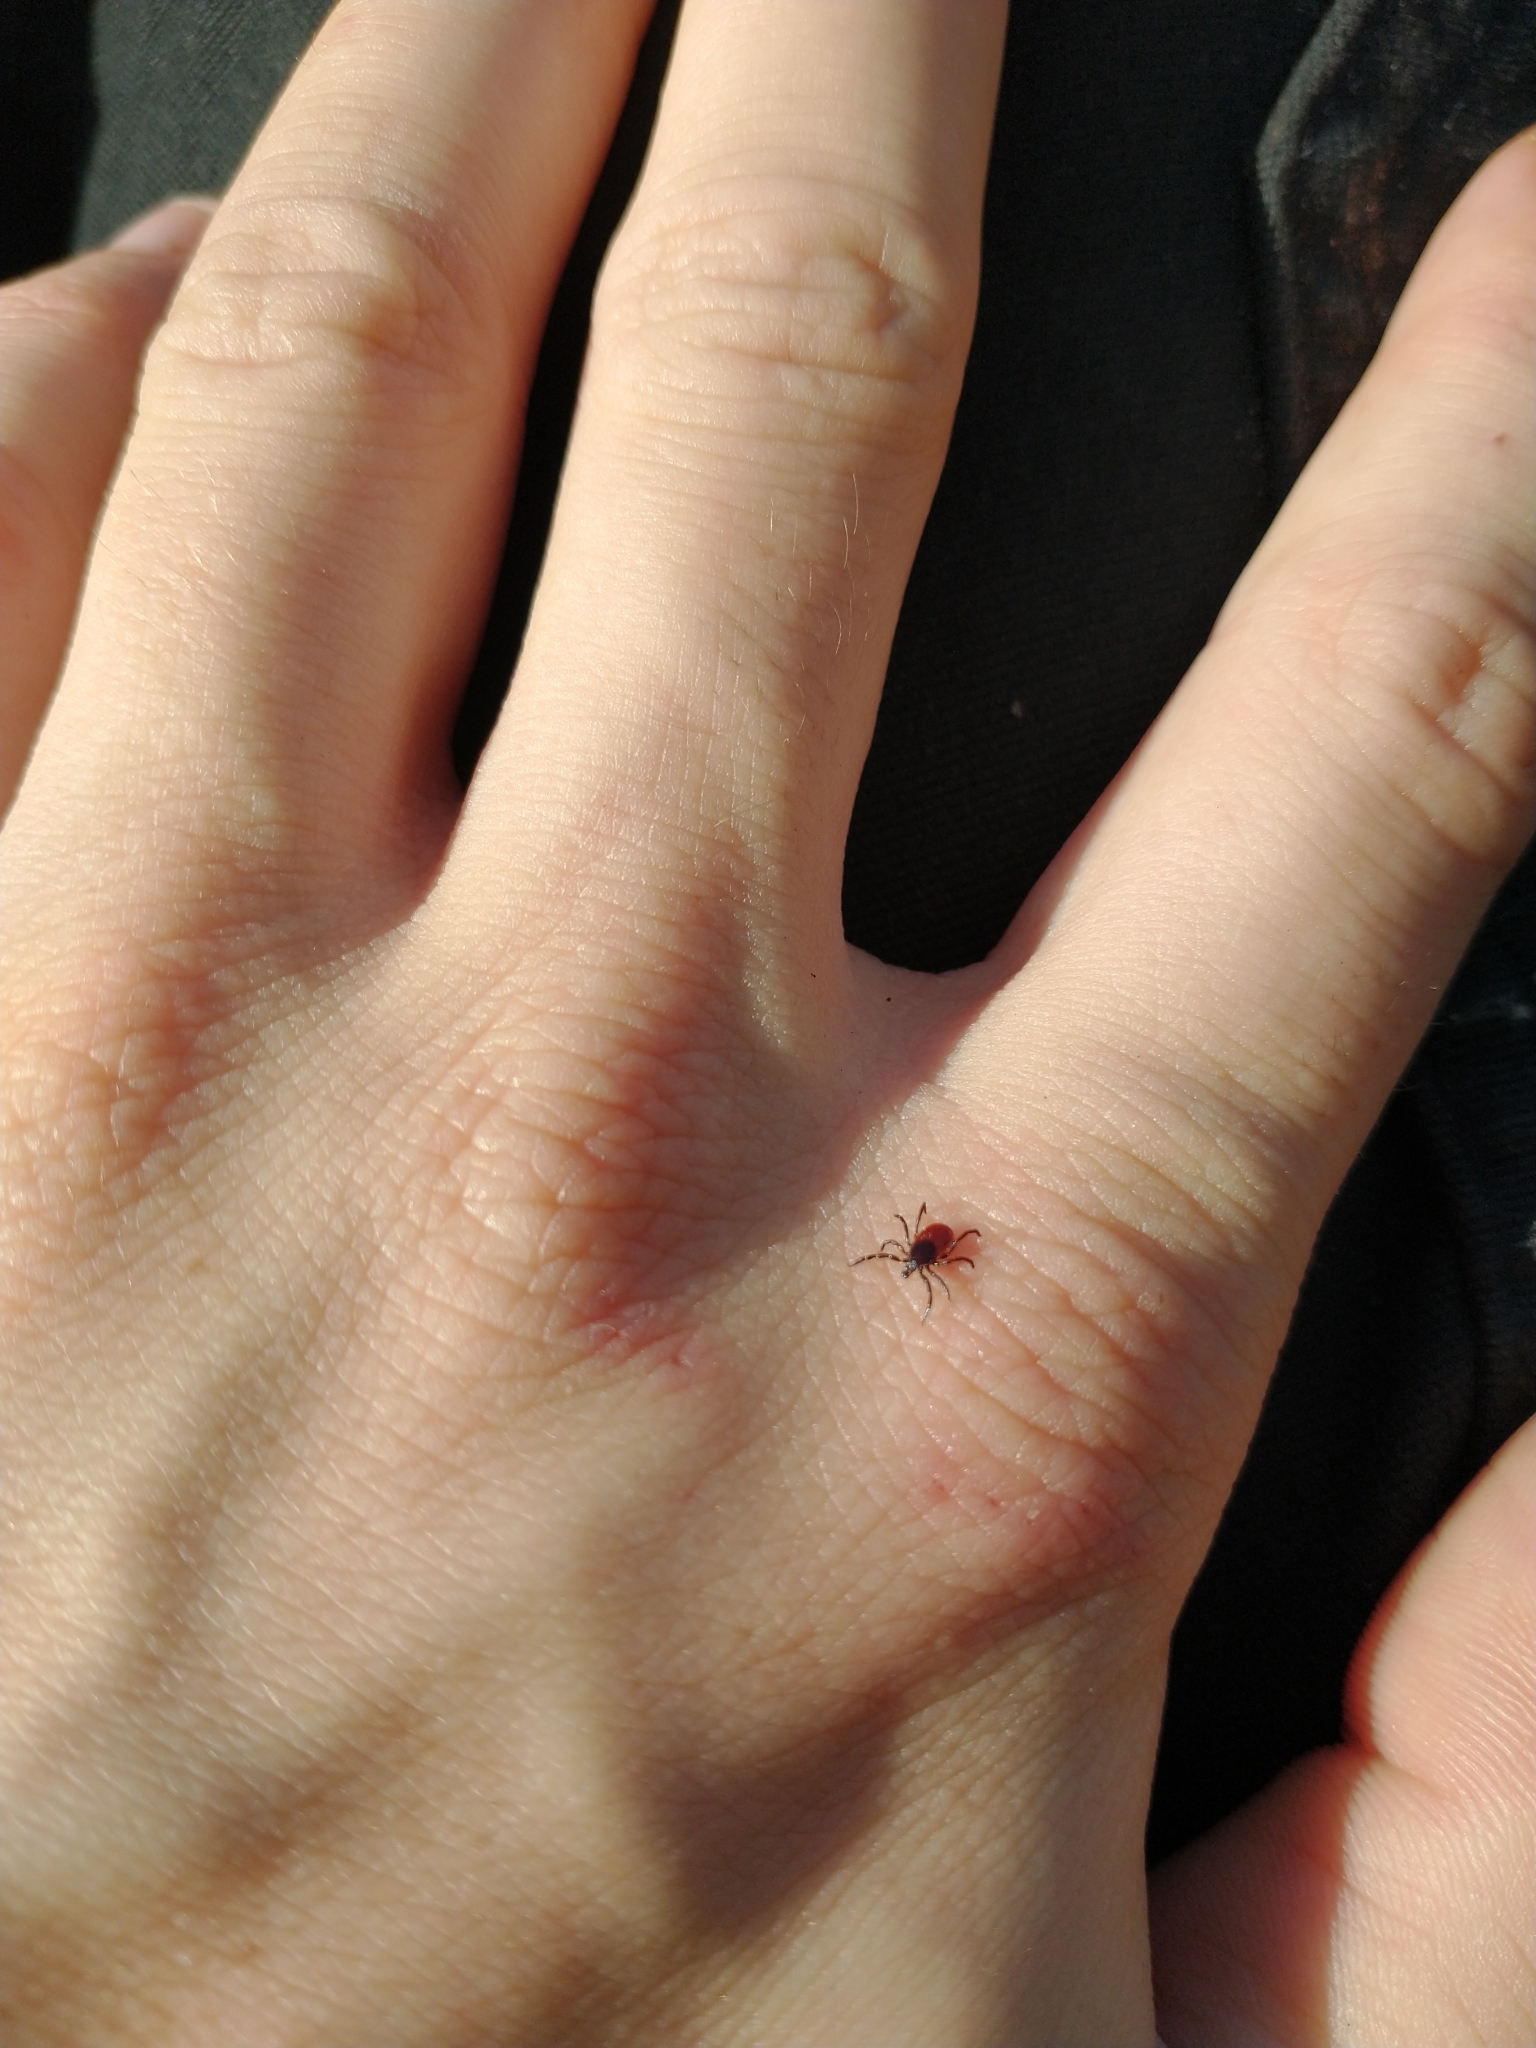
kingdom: Animalia
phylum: Arthropoda
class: Arachnida
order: Ixodida
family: Ixodidae
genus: Ixodes
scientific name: Ixodes pacificus
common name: California black-legged tick
